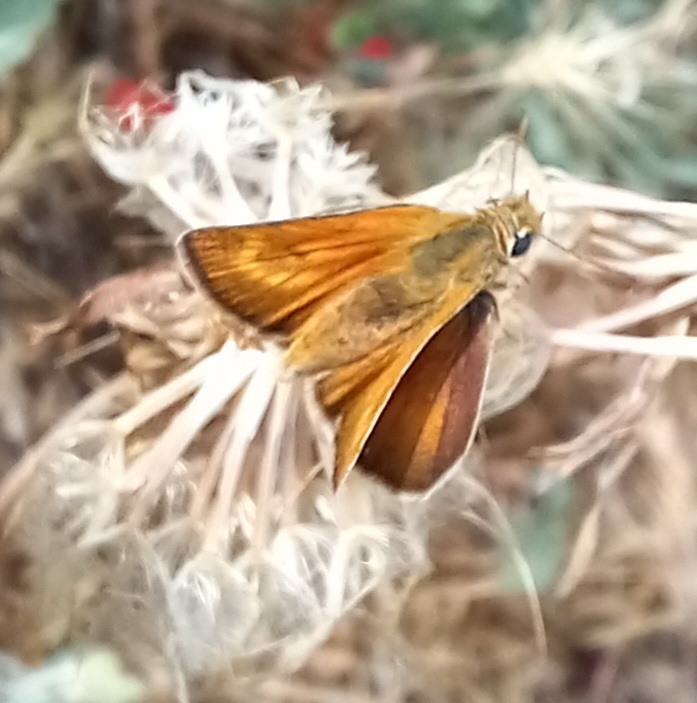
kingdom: Animalia
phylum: Arthropoda
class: Insecta
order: Lepidoptera
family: Hesperiidae
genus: Thymelicus
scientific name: Thymelicus acteon
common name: Lulworth skipper
